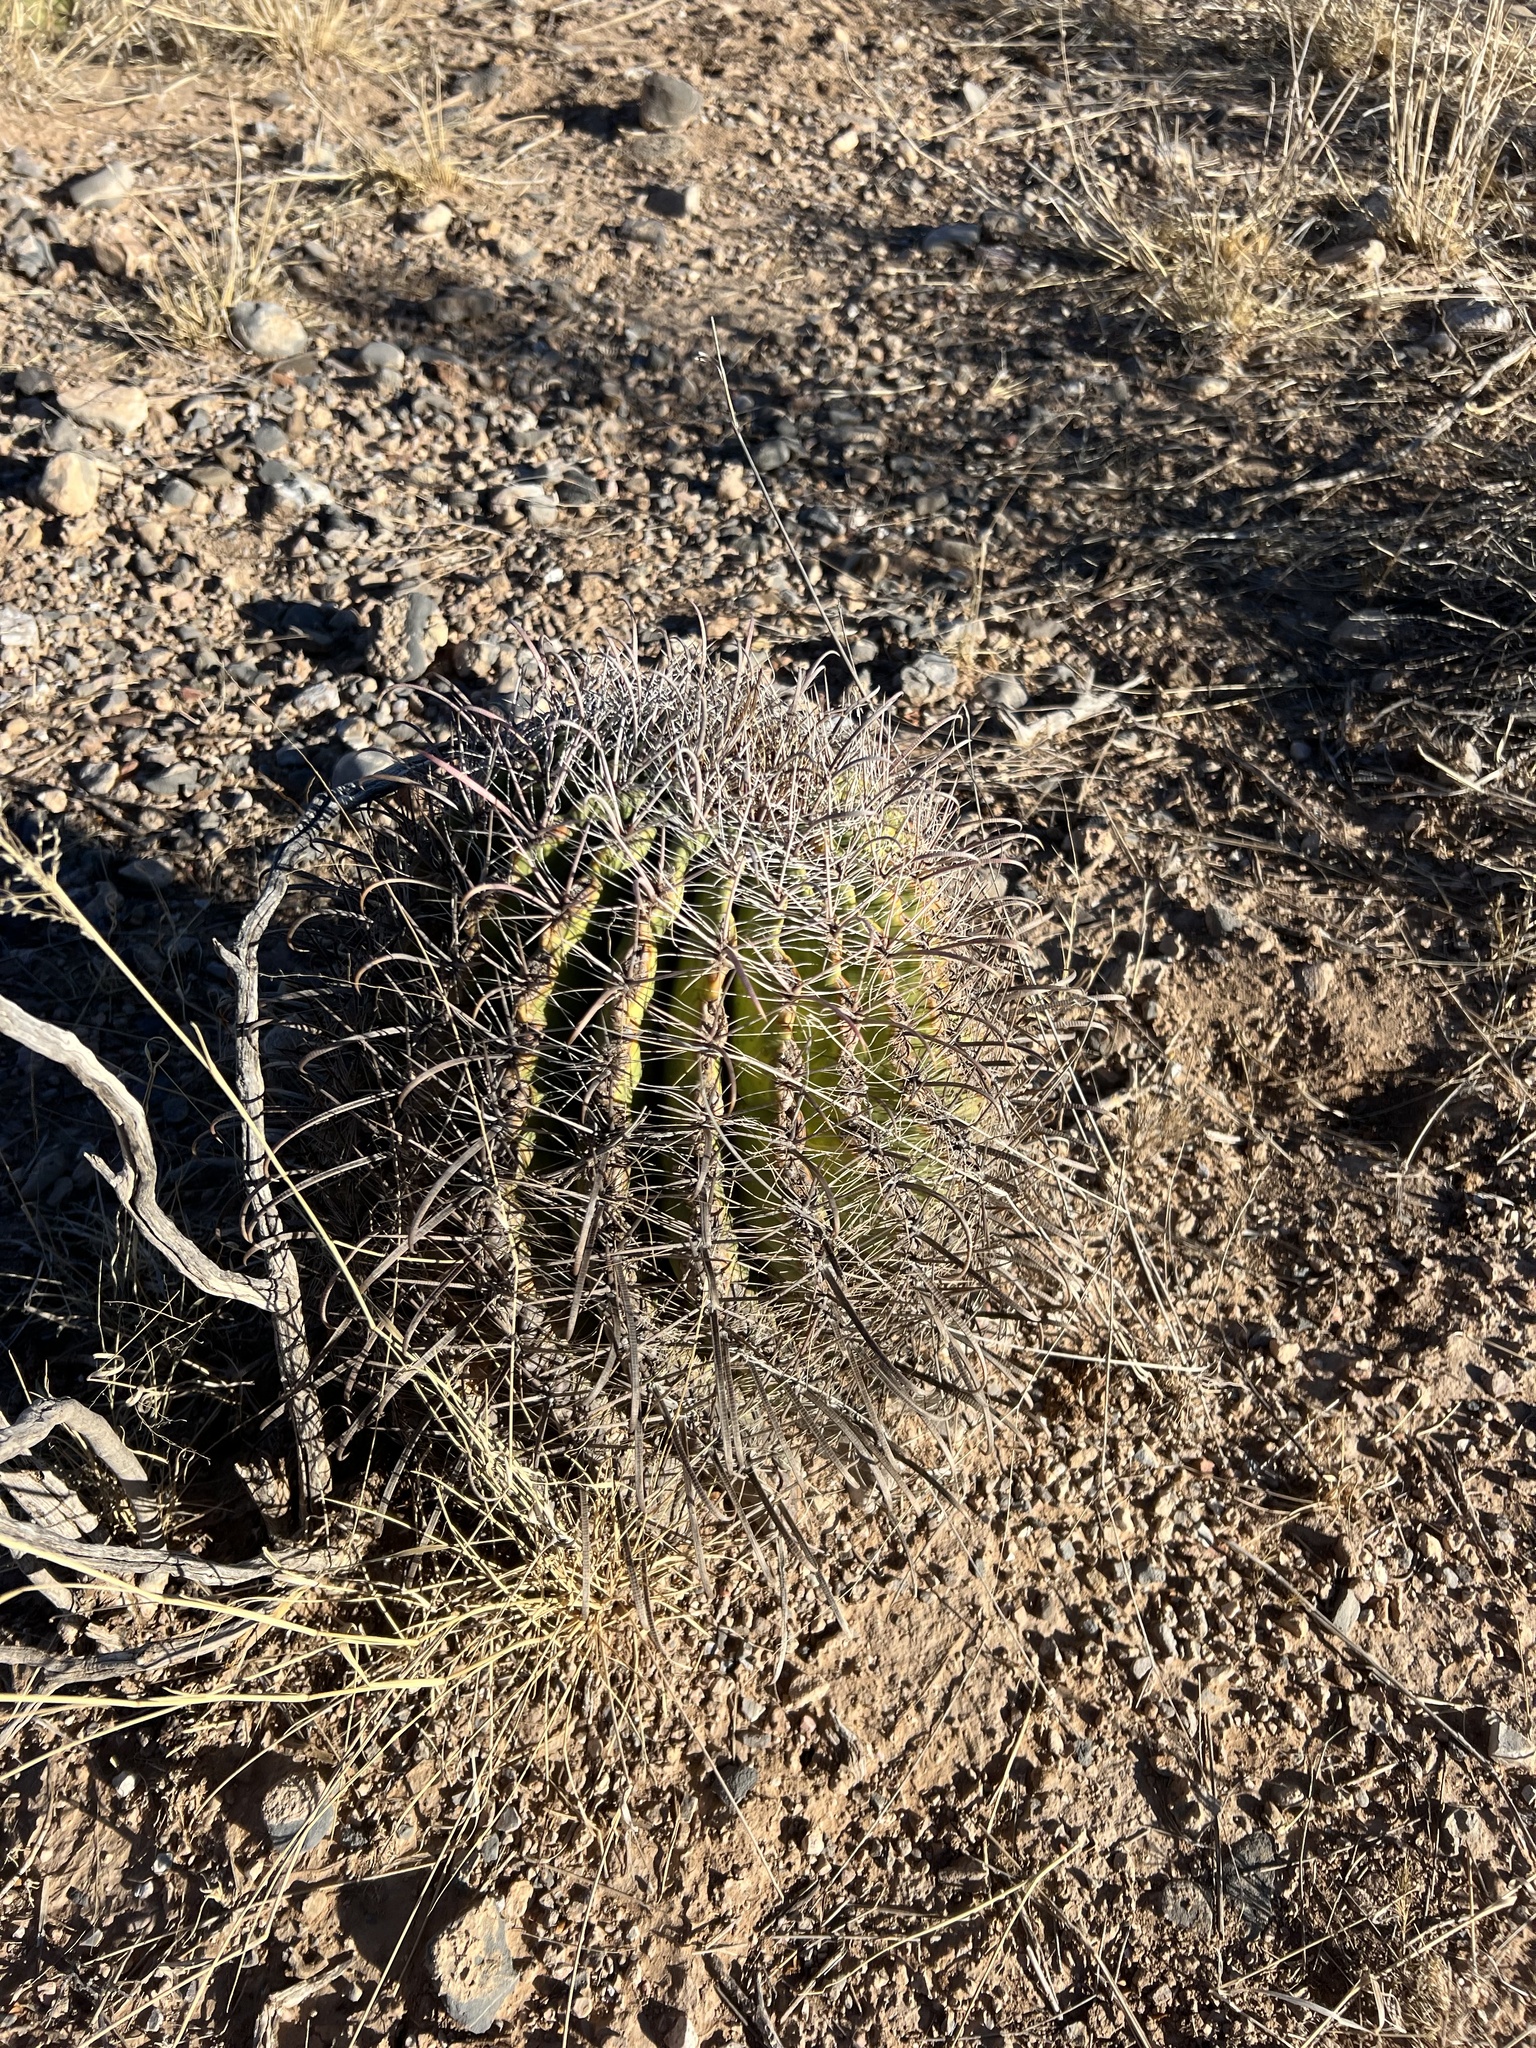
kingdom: Plantae
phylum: Tracheophyta
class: Magnoliopsida
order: Caryophyllales
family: Cactaceae
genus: Ferocactus
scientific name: Ferocactus wislizeni
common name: Candy barrel cactus
